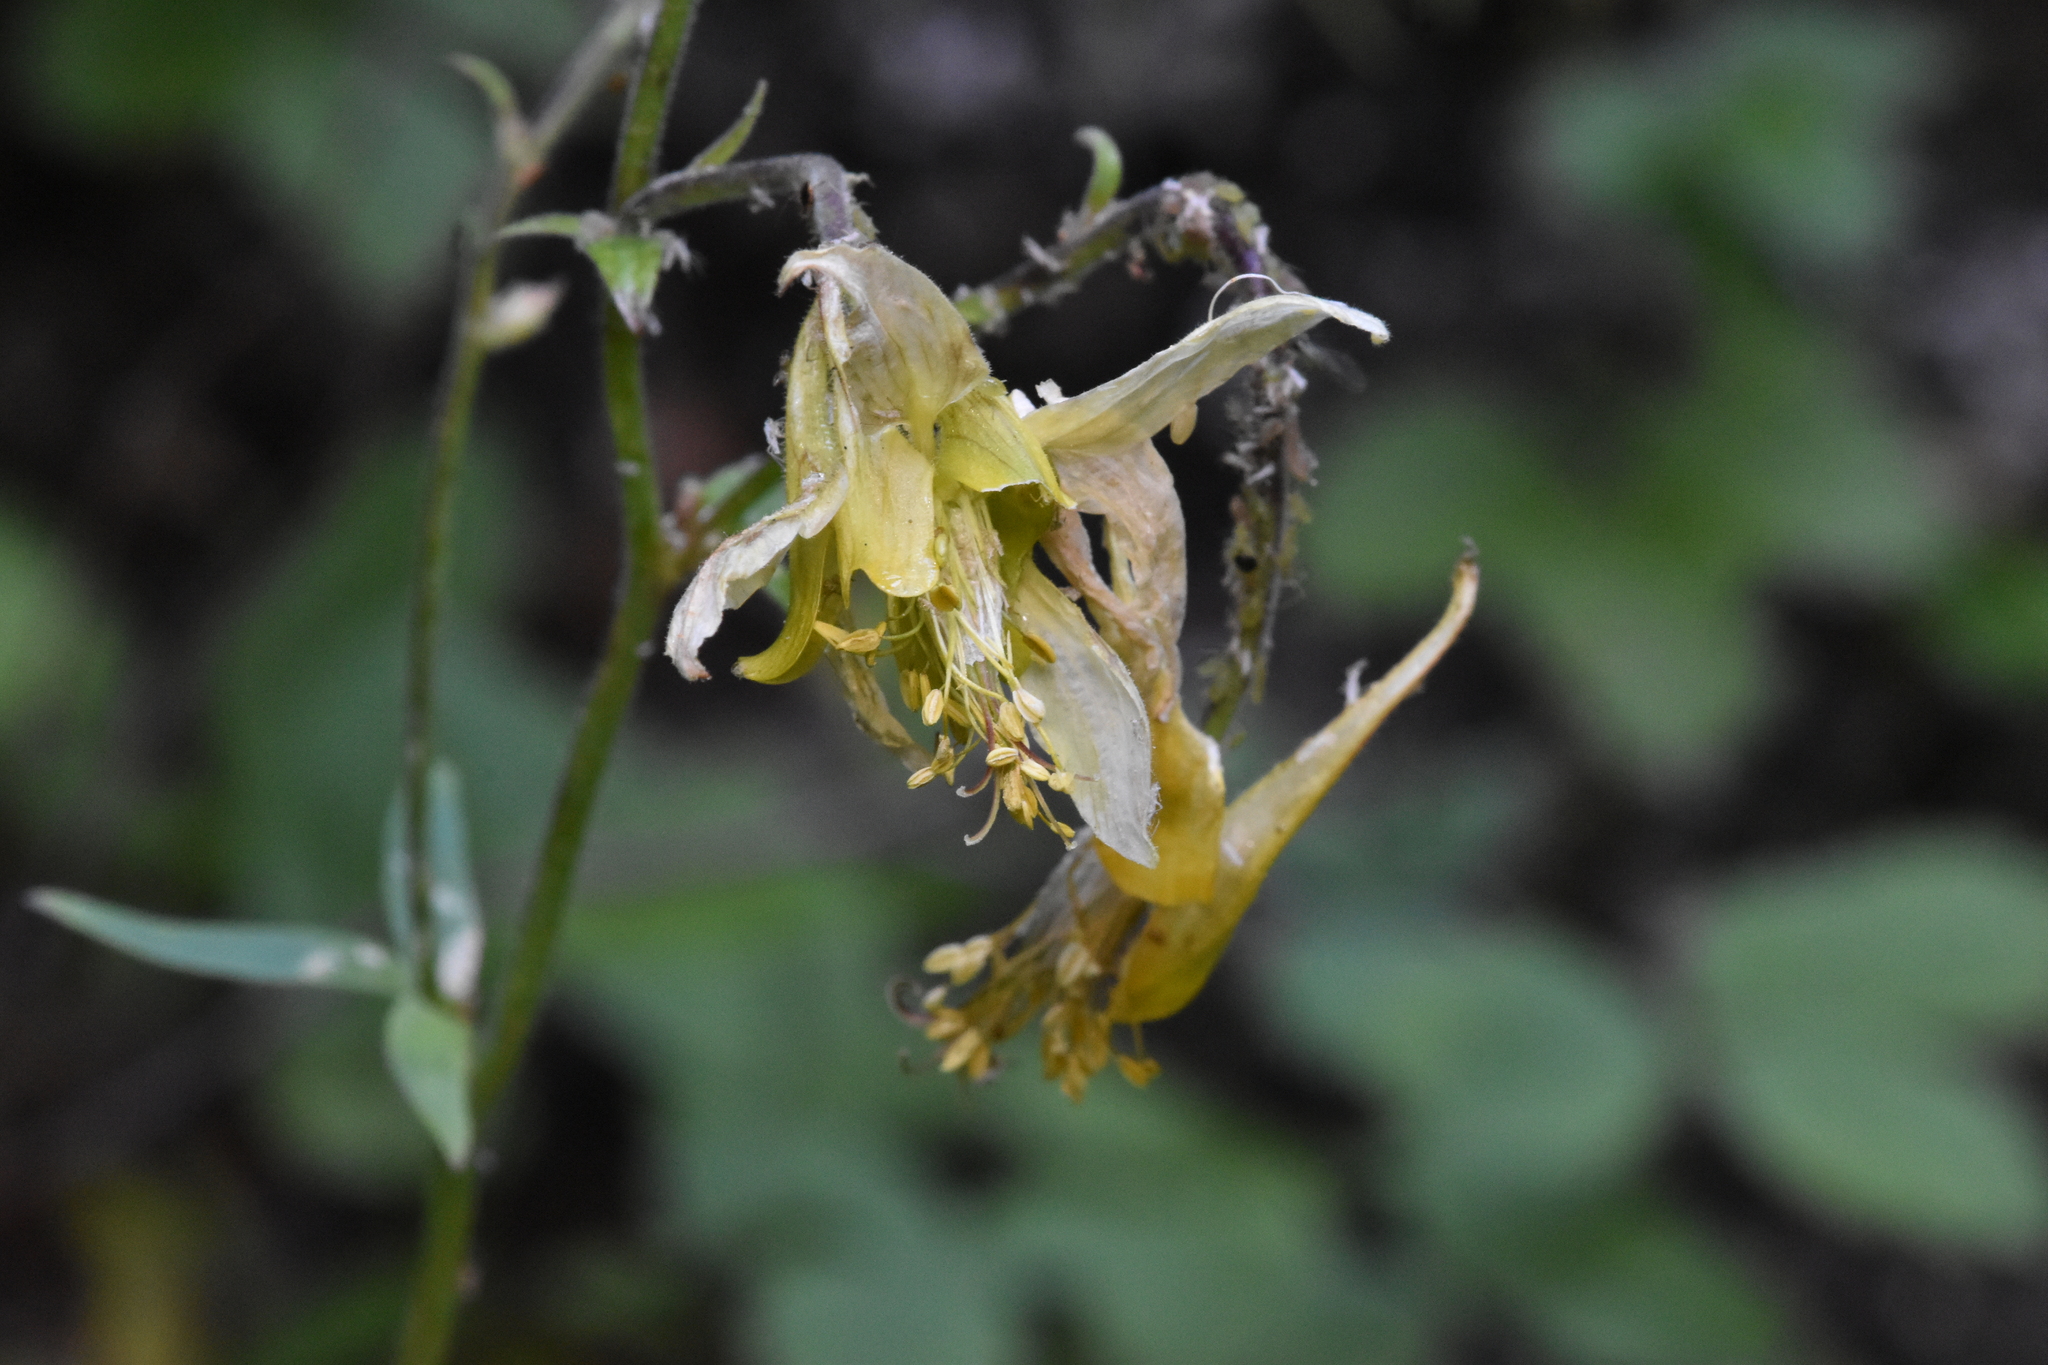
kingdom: Plantae
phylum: Tracheophyta
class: Magnoliopsida
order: Ranunculales
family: Ranunculaceae
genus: Aquilegia
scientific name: Aquilegia flavescens
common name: Yellow columbine
